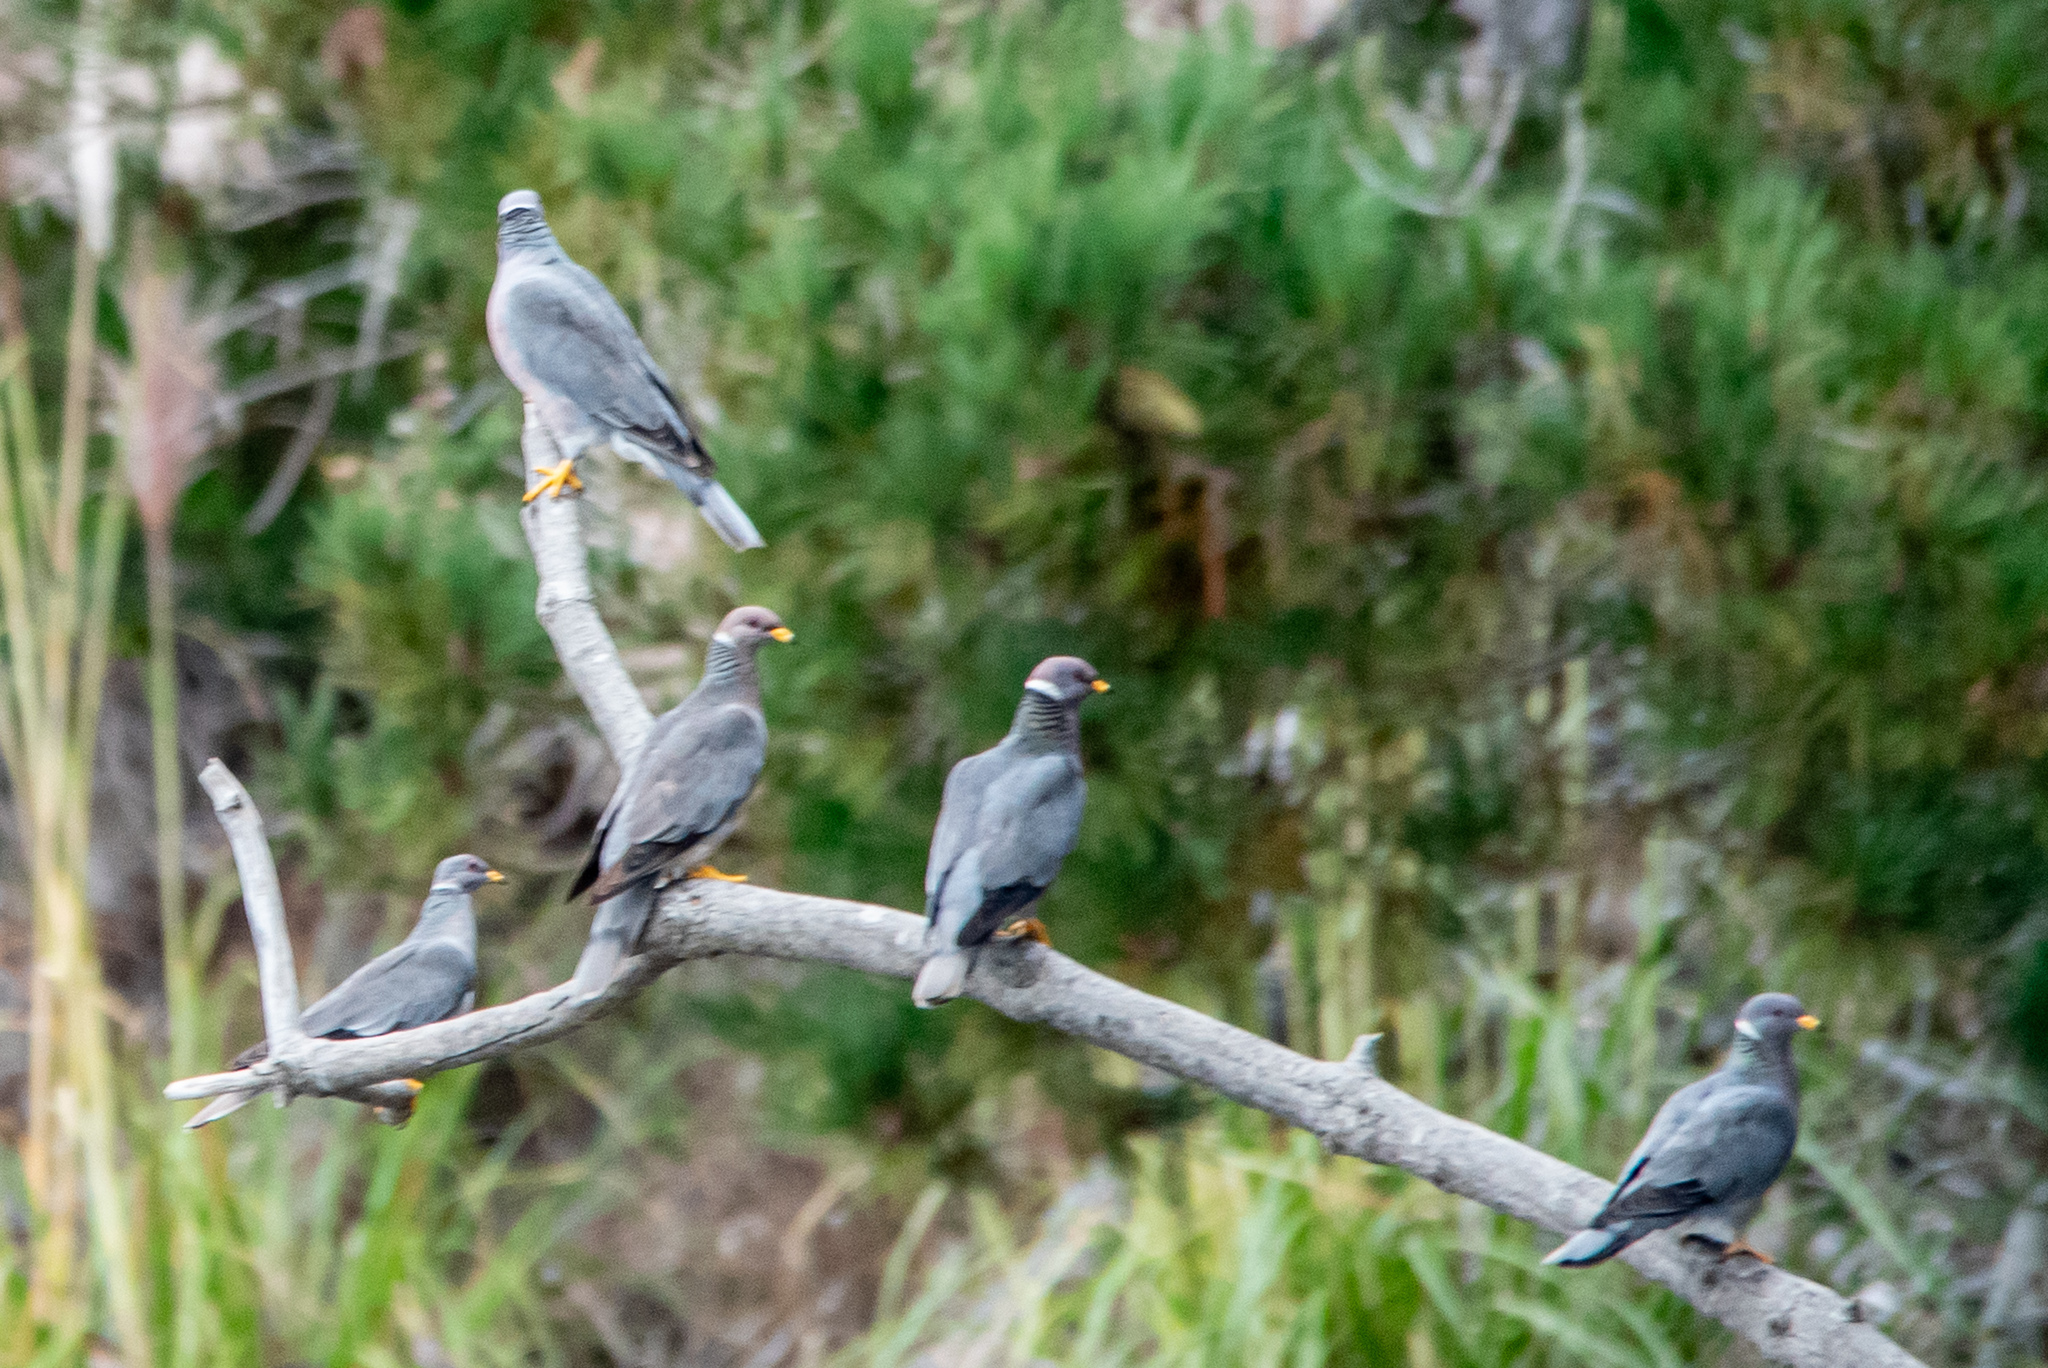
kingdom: Animalia
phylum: Chordata
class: Aves
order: Columbiformes
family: Columbidae
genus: Patagioenas
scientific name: Patagioenas fasciata
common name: Band-tailed pigeon
